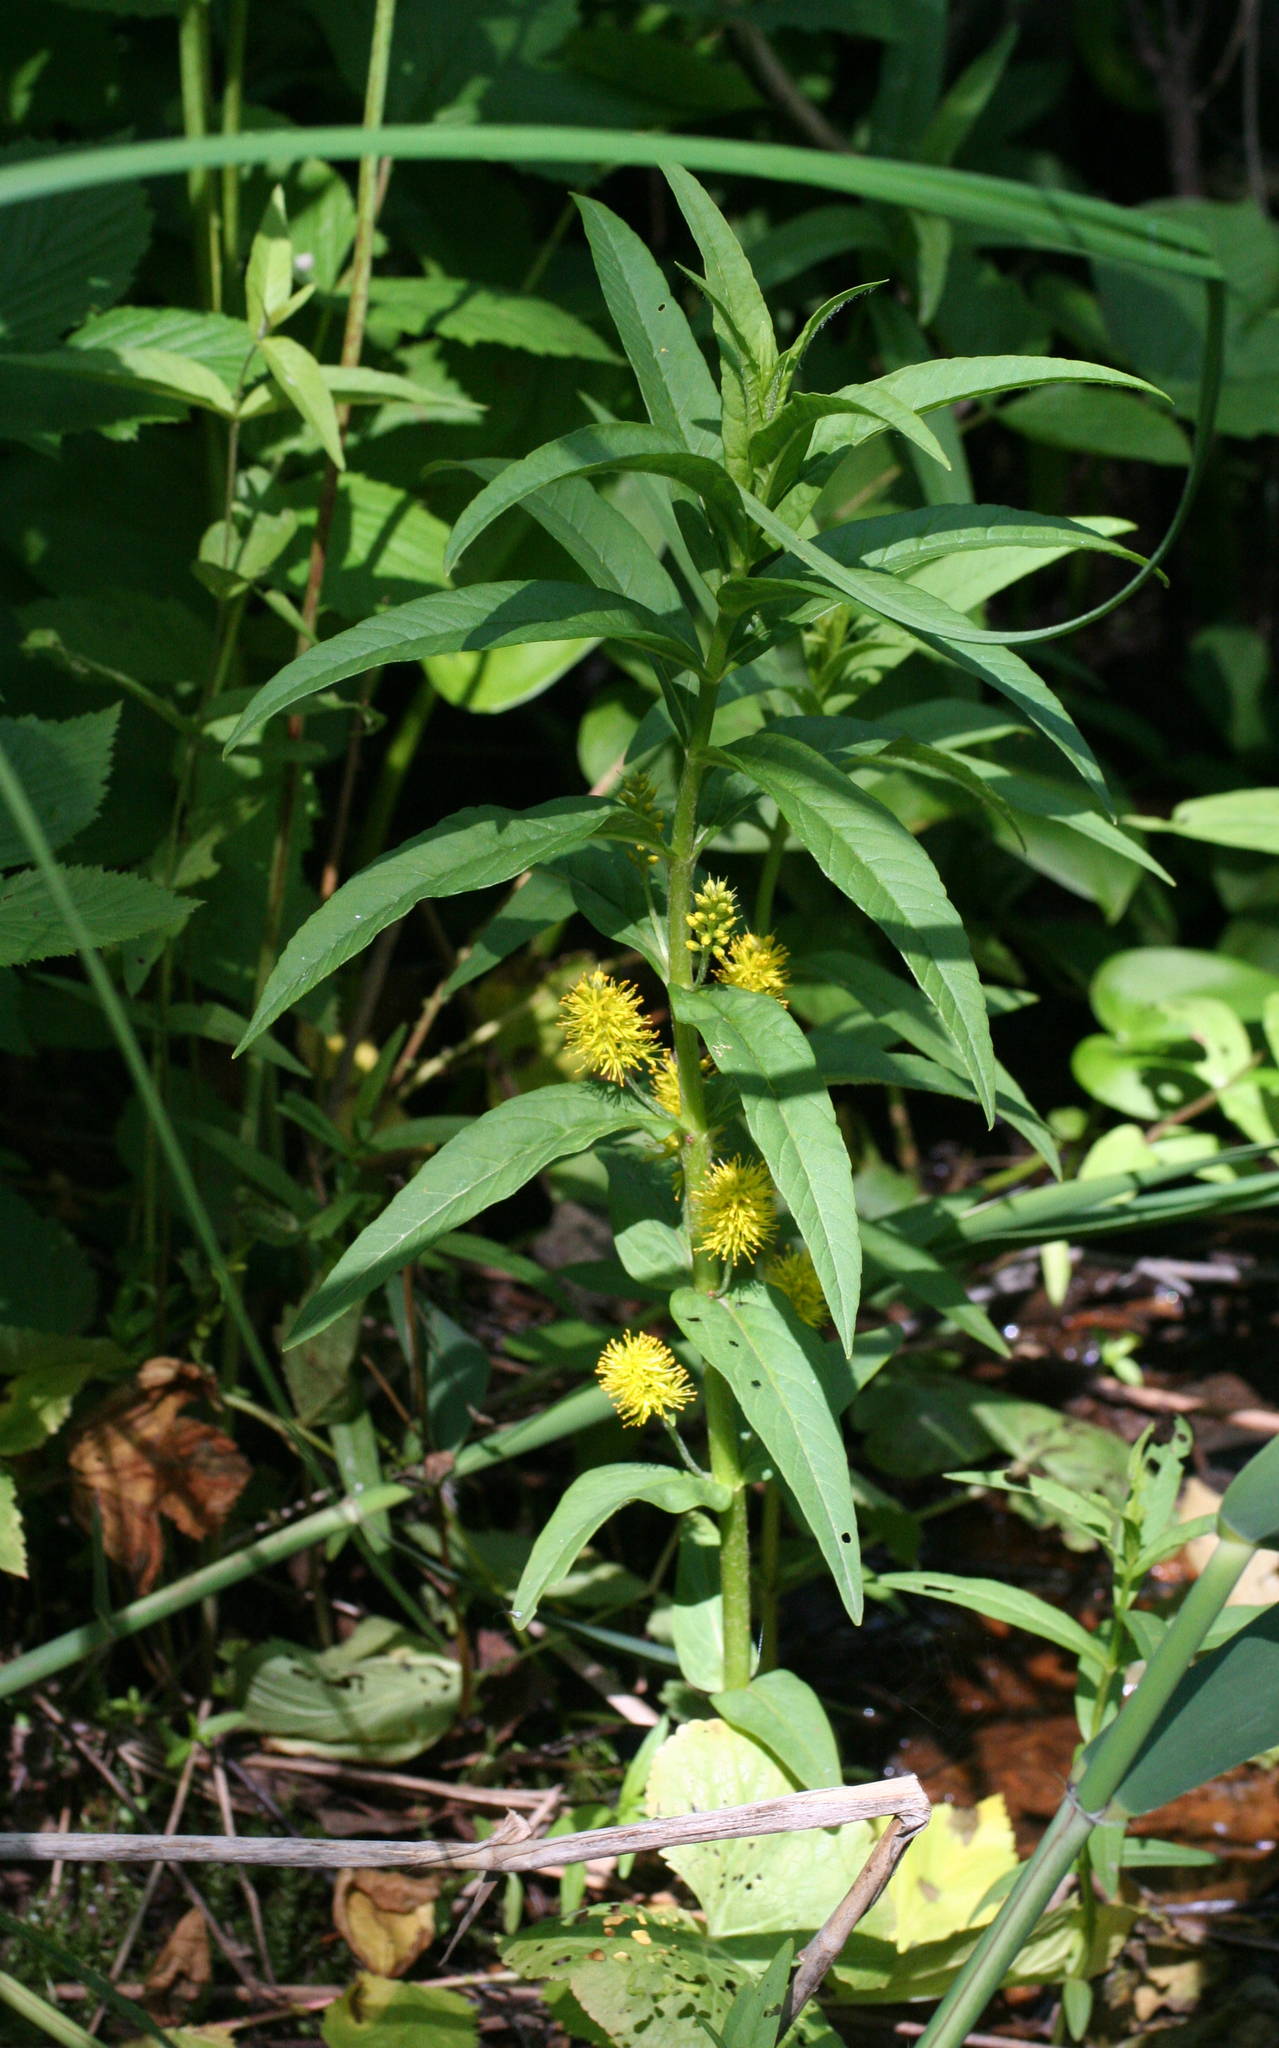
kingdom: Plantae
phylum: Tracheophyta
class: Magnoliopsida
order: Ericales
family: Primulaceae
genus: Lysimachia
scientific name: Lysimachia thyrsiflora
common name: Tufted loosestrife
